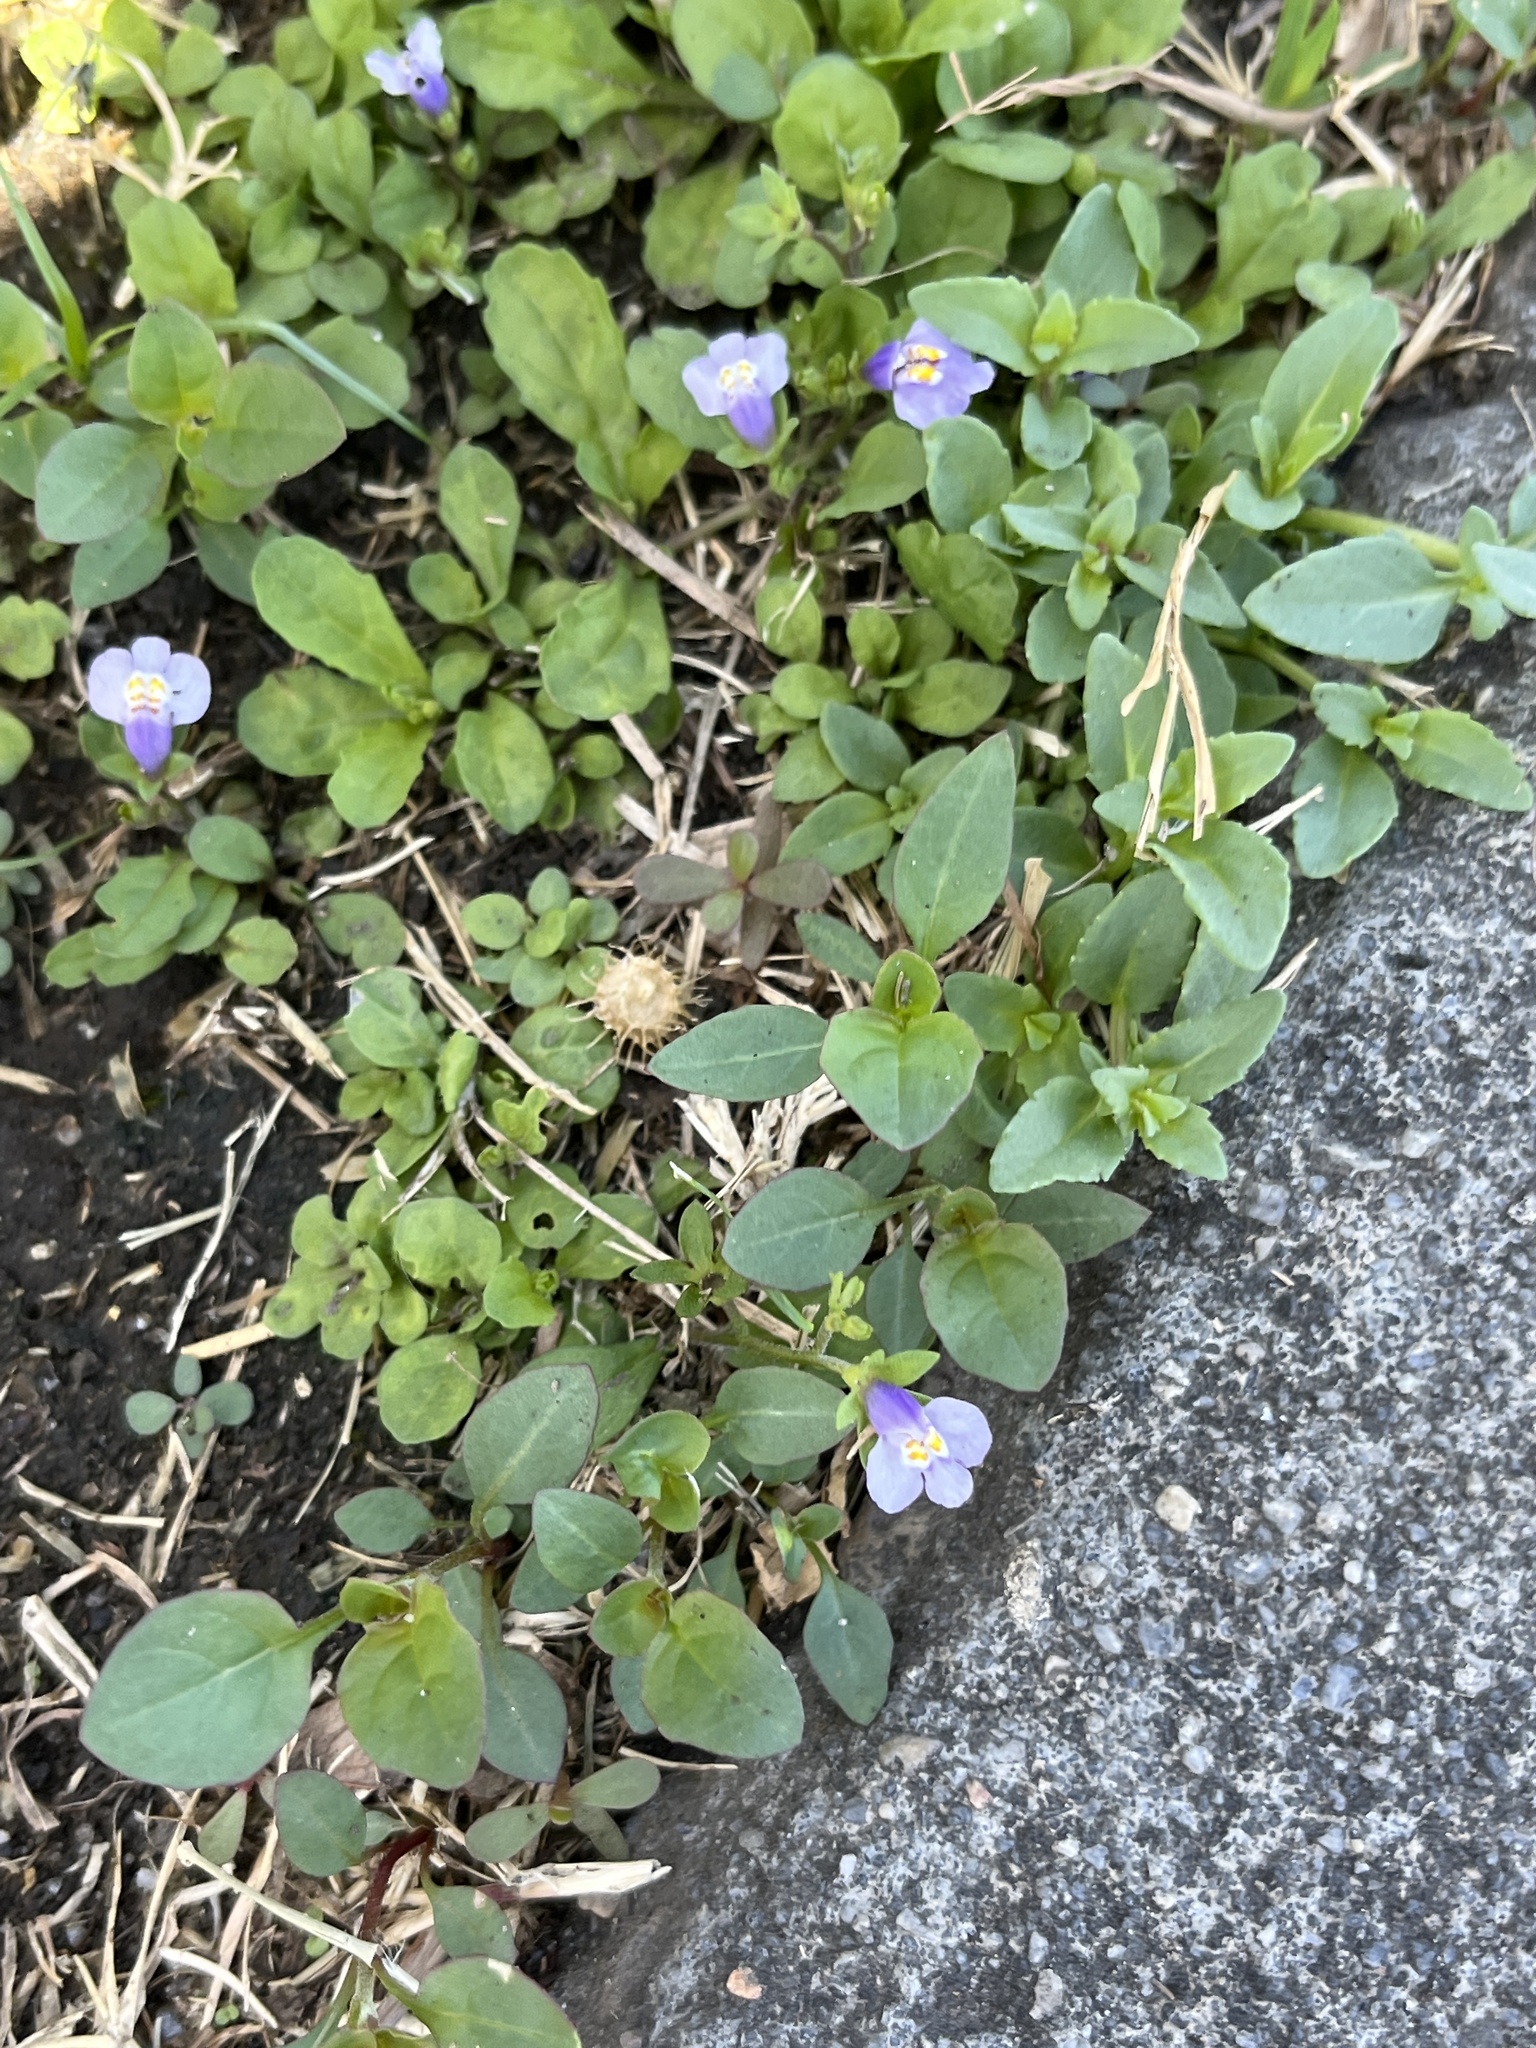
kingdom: Plantae
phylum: Tracheophyta
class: Magnoliopsida
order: Lamiales
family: Mazaceae
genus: Mazus
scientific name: Mazus pumilus
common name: Japanese mazus
